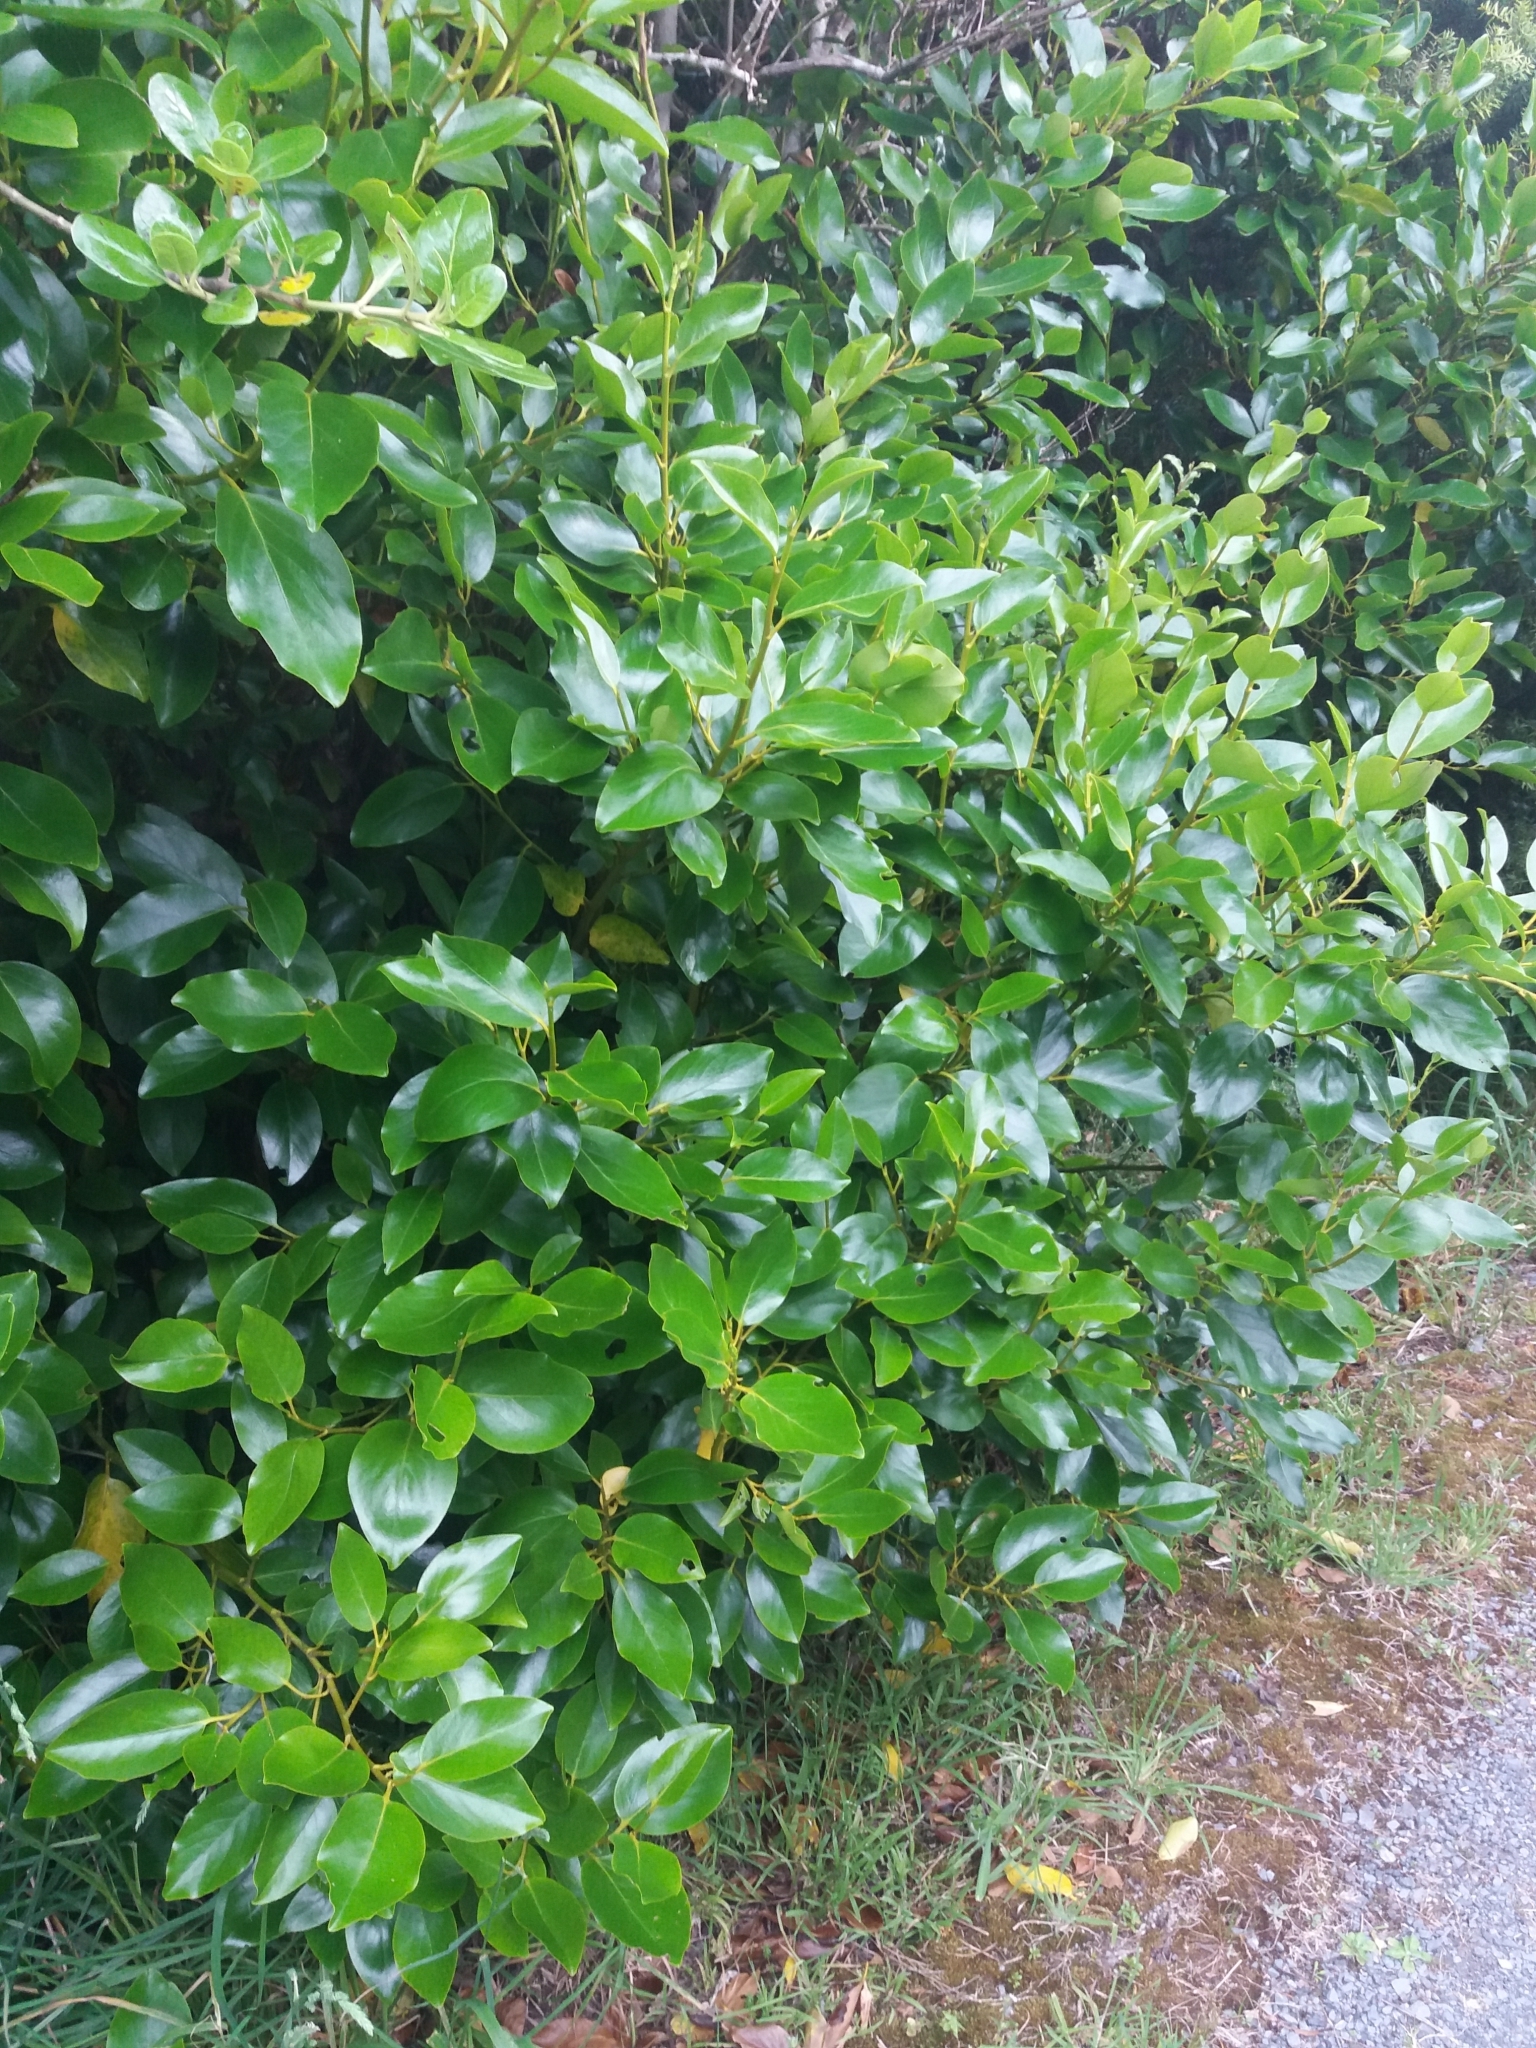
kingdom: Plantae
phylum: Tracheophyta
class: Magnoliopsida
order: Apiales
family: Griseliniaceae
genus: Griselinia
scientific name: Griselinia littoralis
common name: New zealand broadleaf
